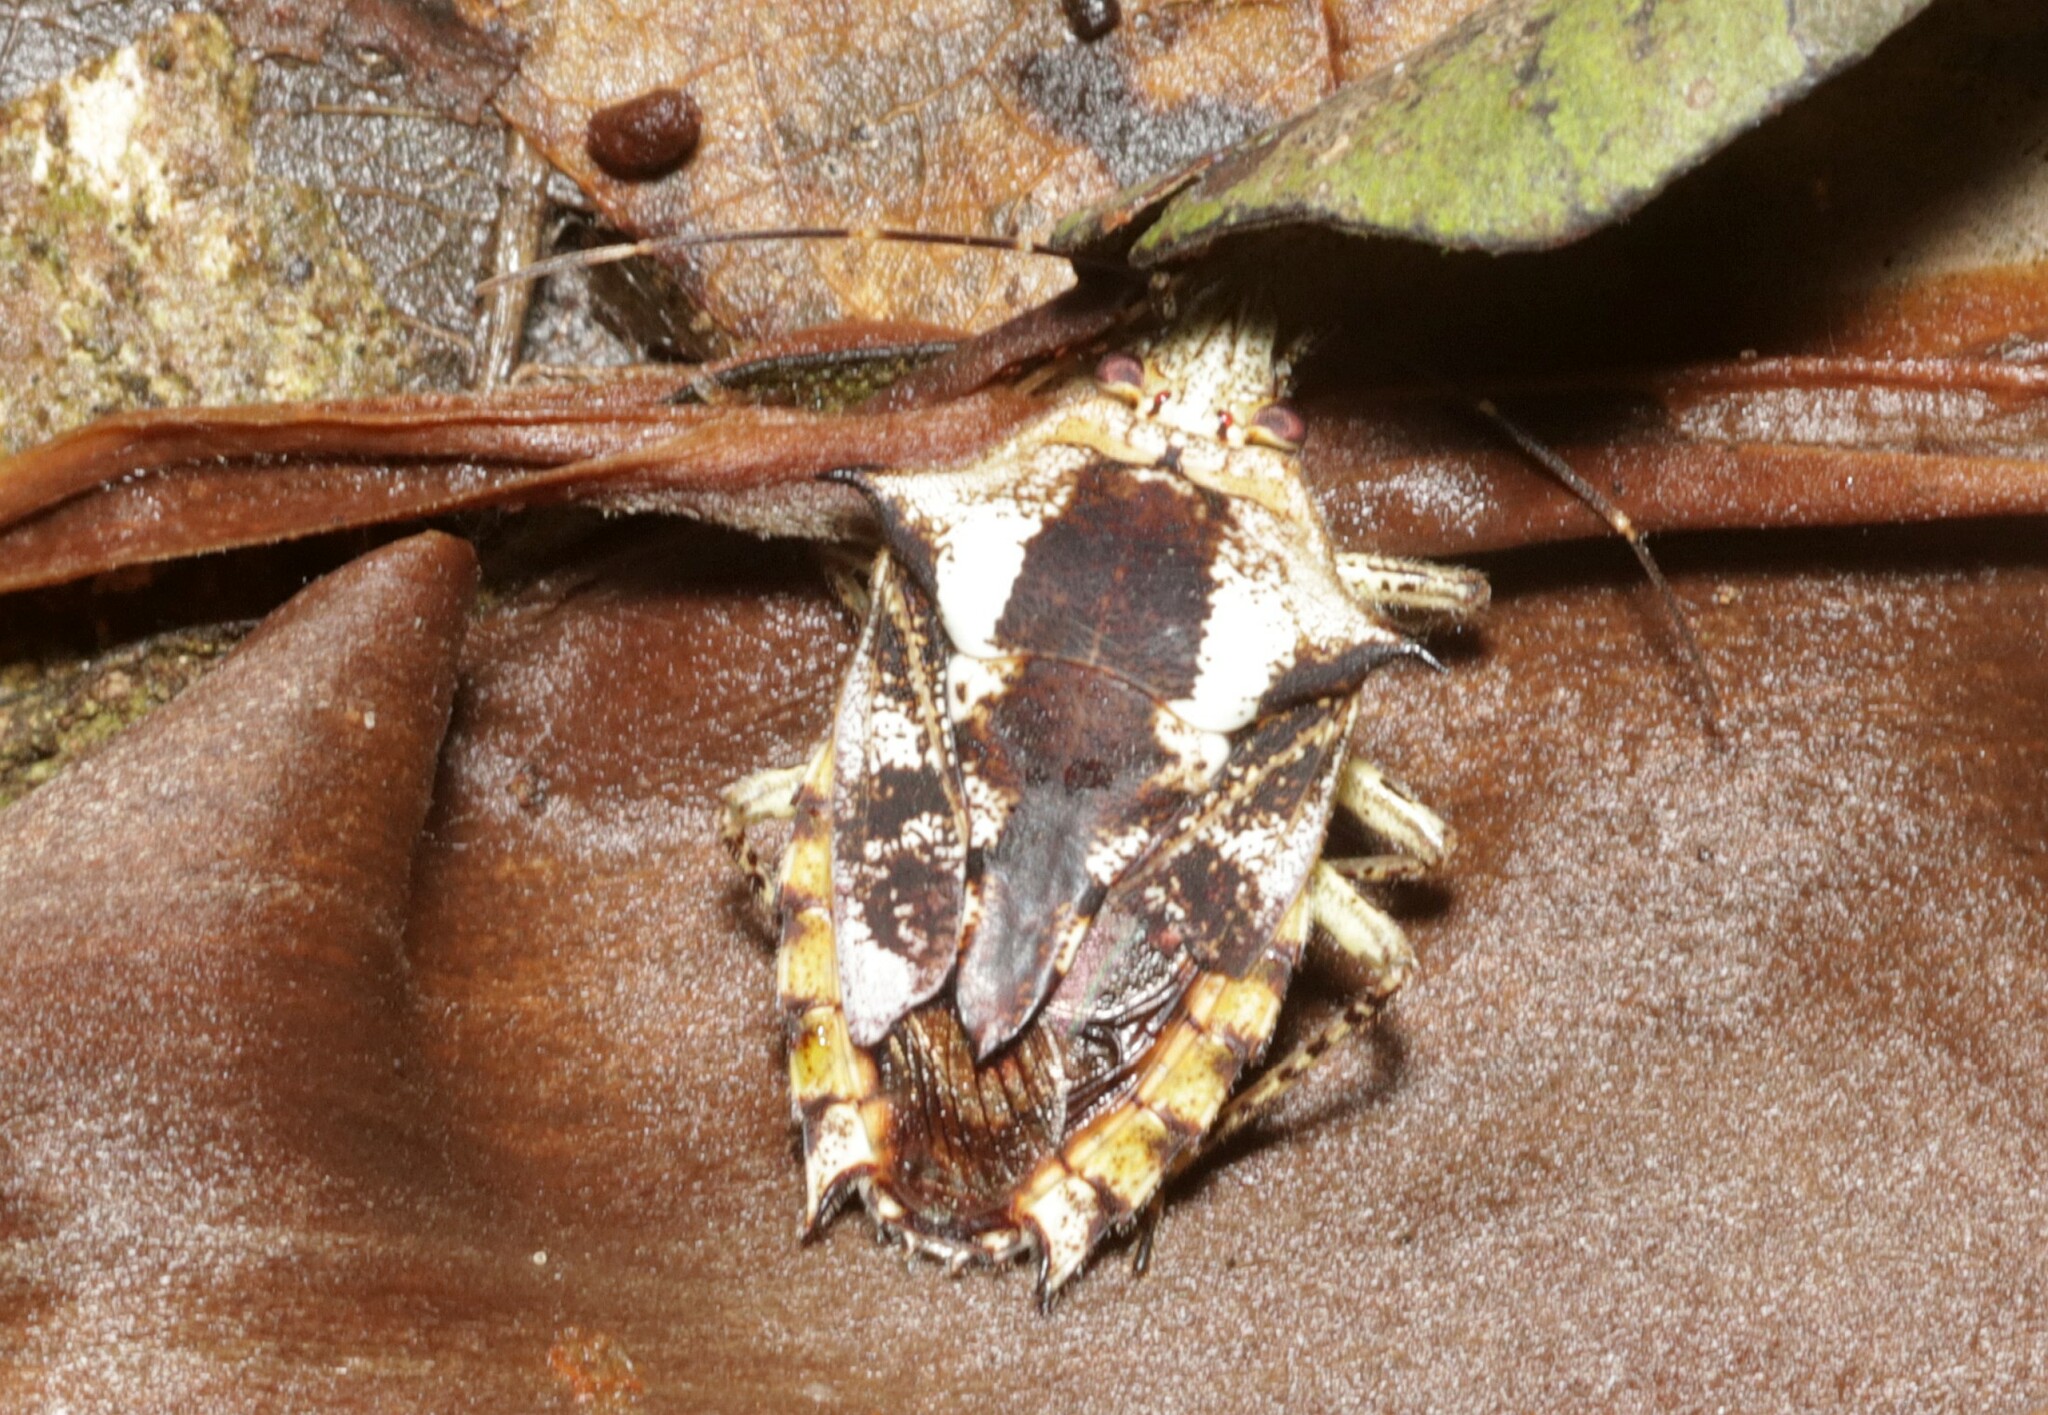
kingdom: Animalia
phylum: Arthropoda
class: Insecta
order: Hemiptera
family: Pentatomidae
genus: Pseudevoplitus
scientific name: Pseudevoplitus
